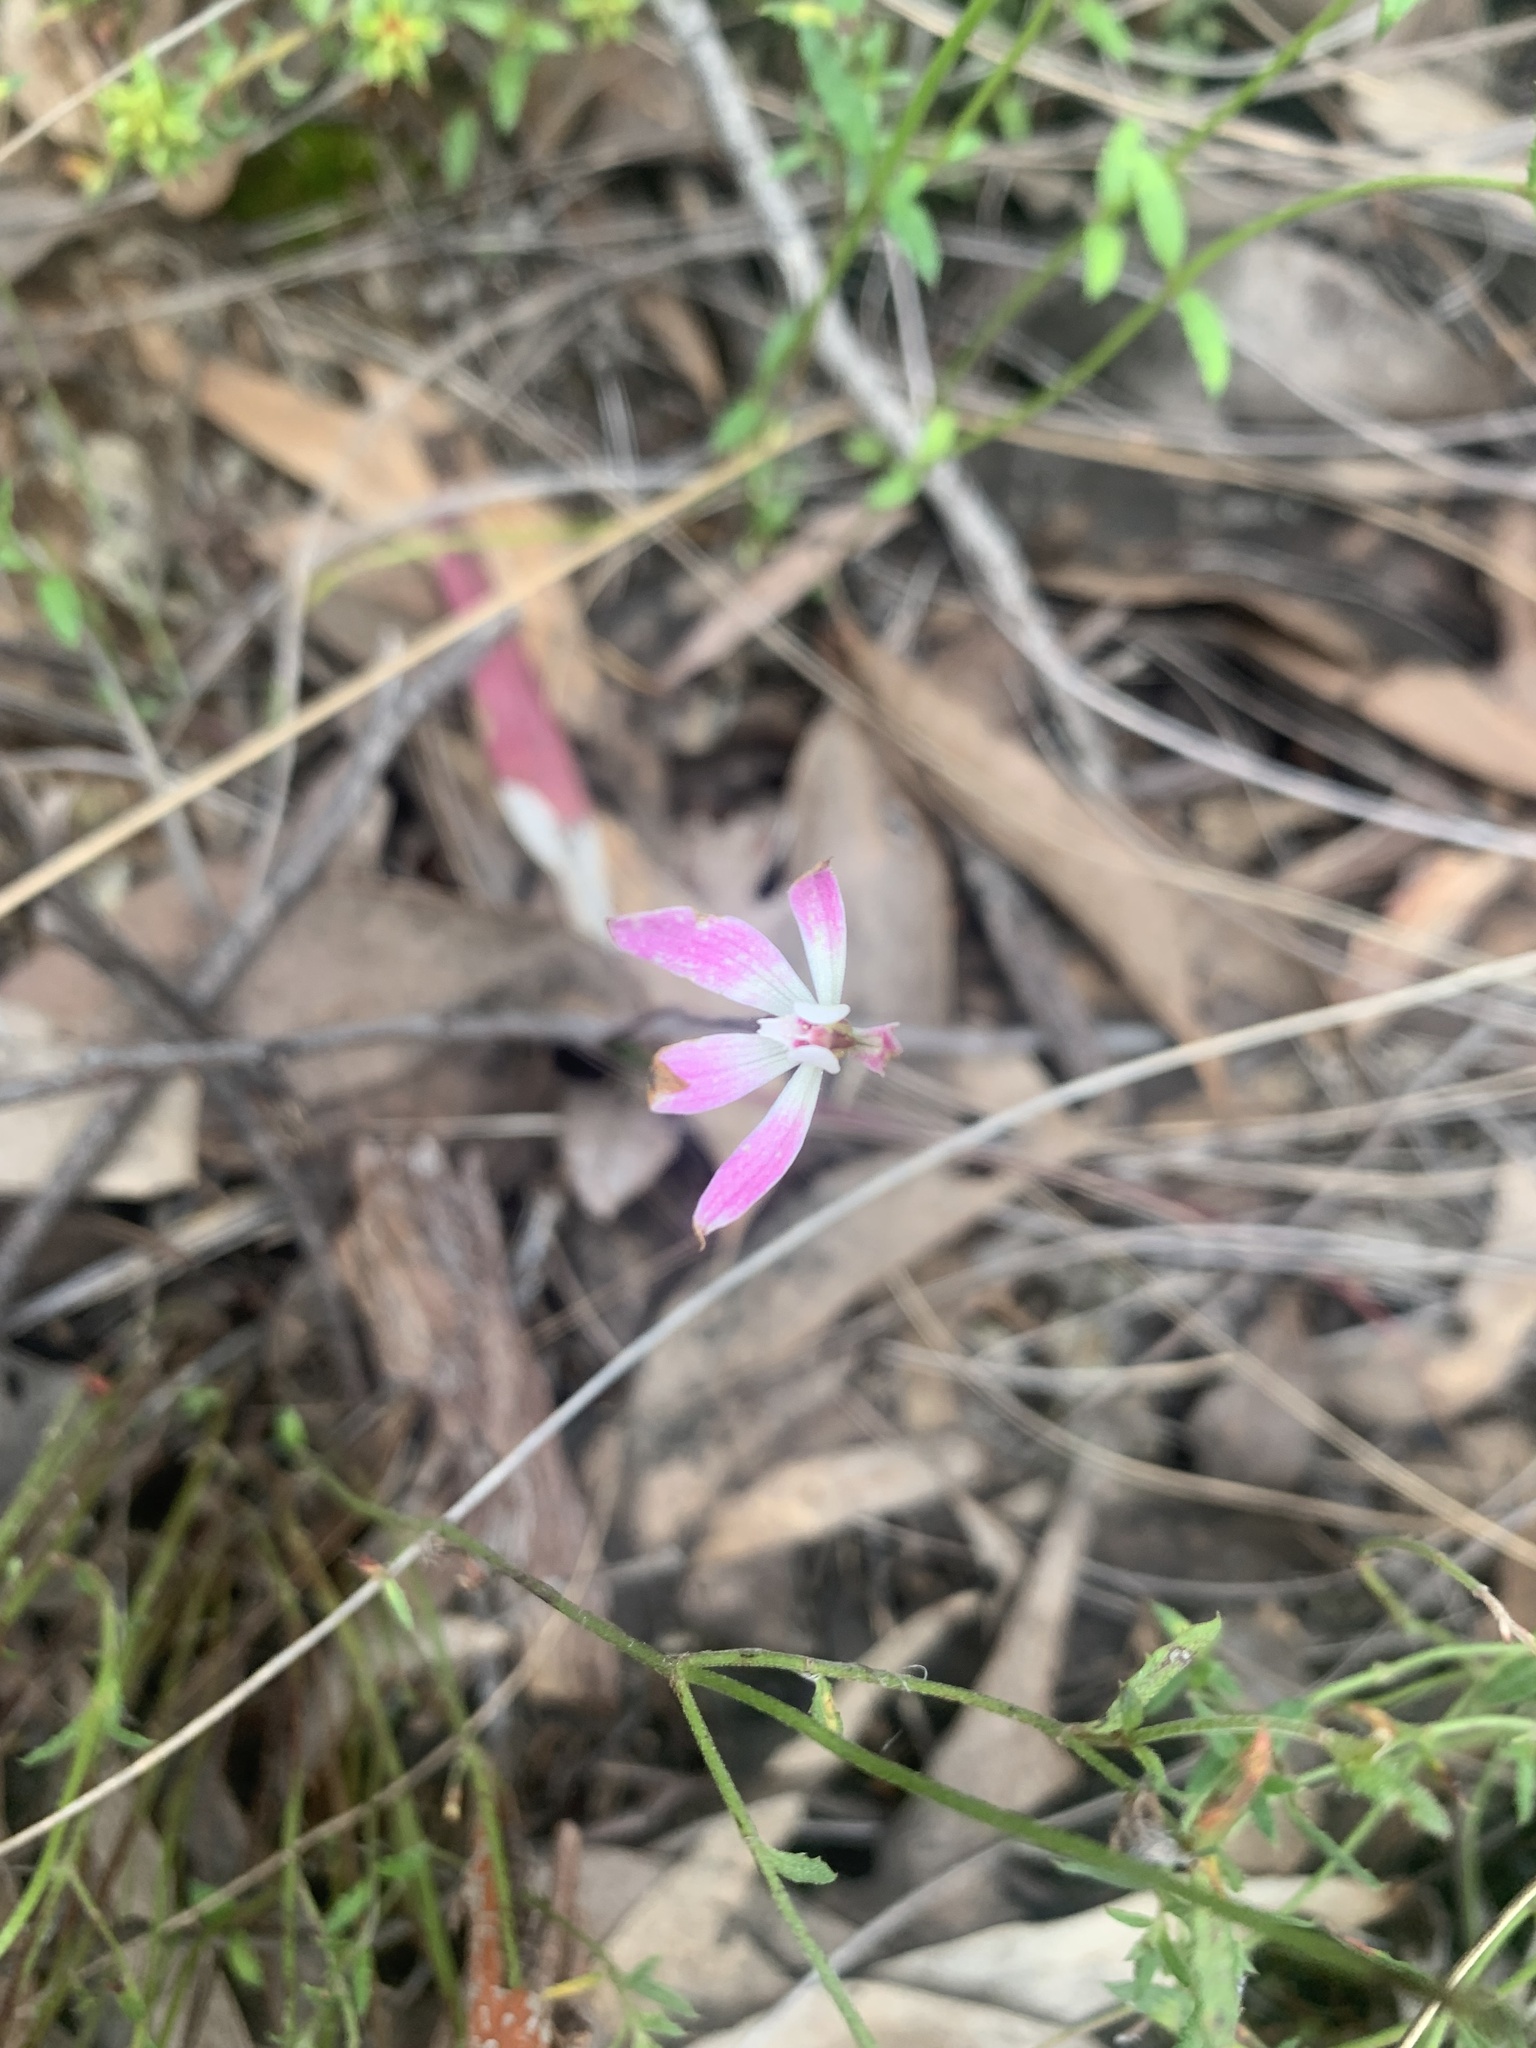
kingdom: Plantae
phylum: Tracheophyta
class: Liliopsida
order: Asparagales
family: Orchidaceae
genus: Caladenia
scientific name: Caladenia fuscata
